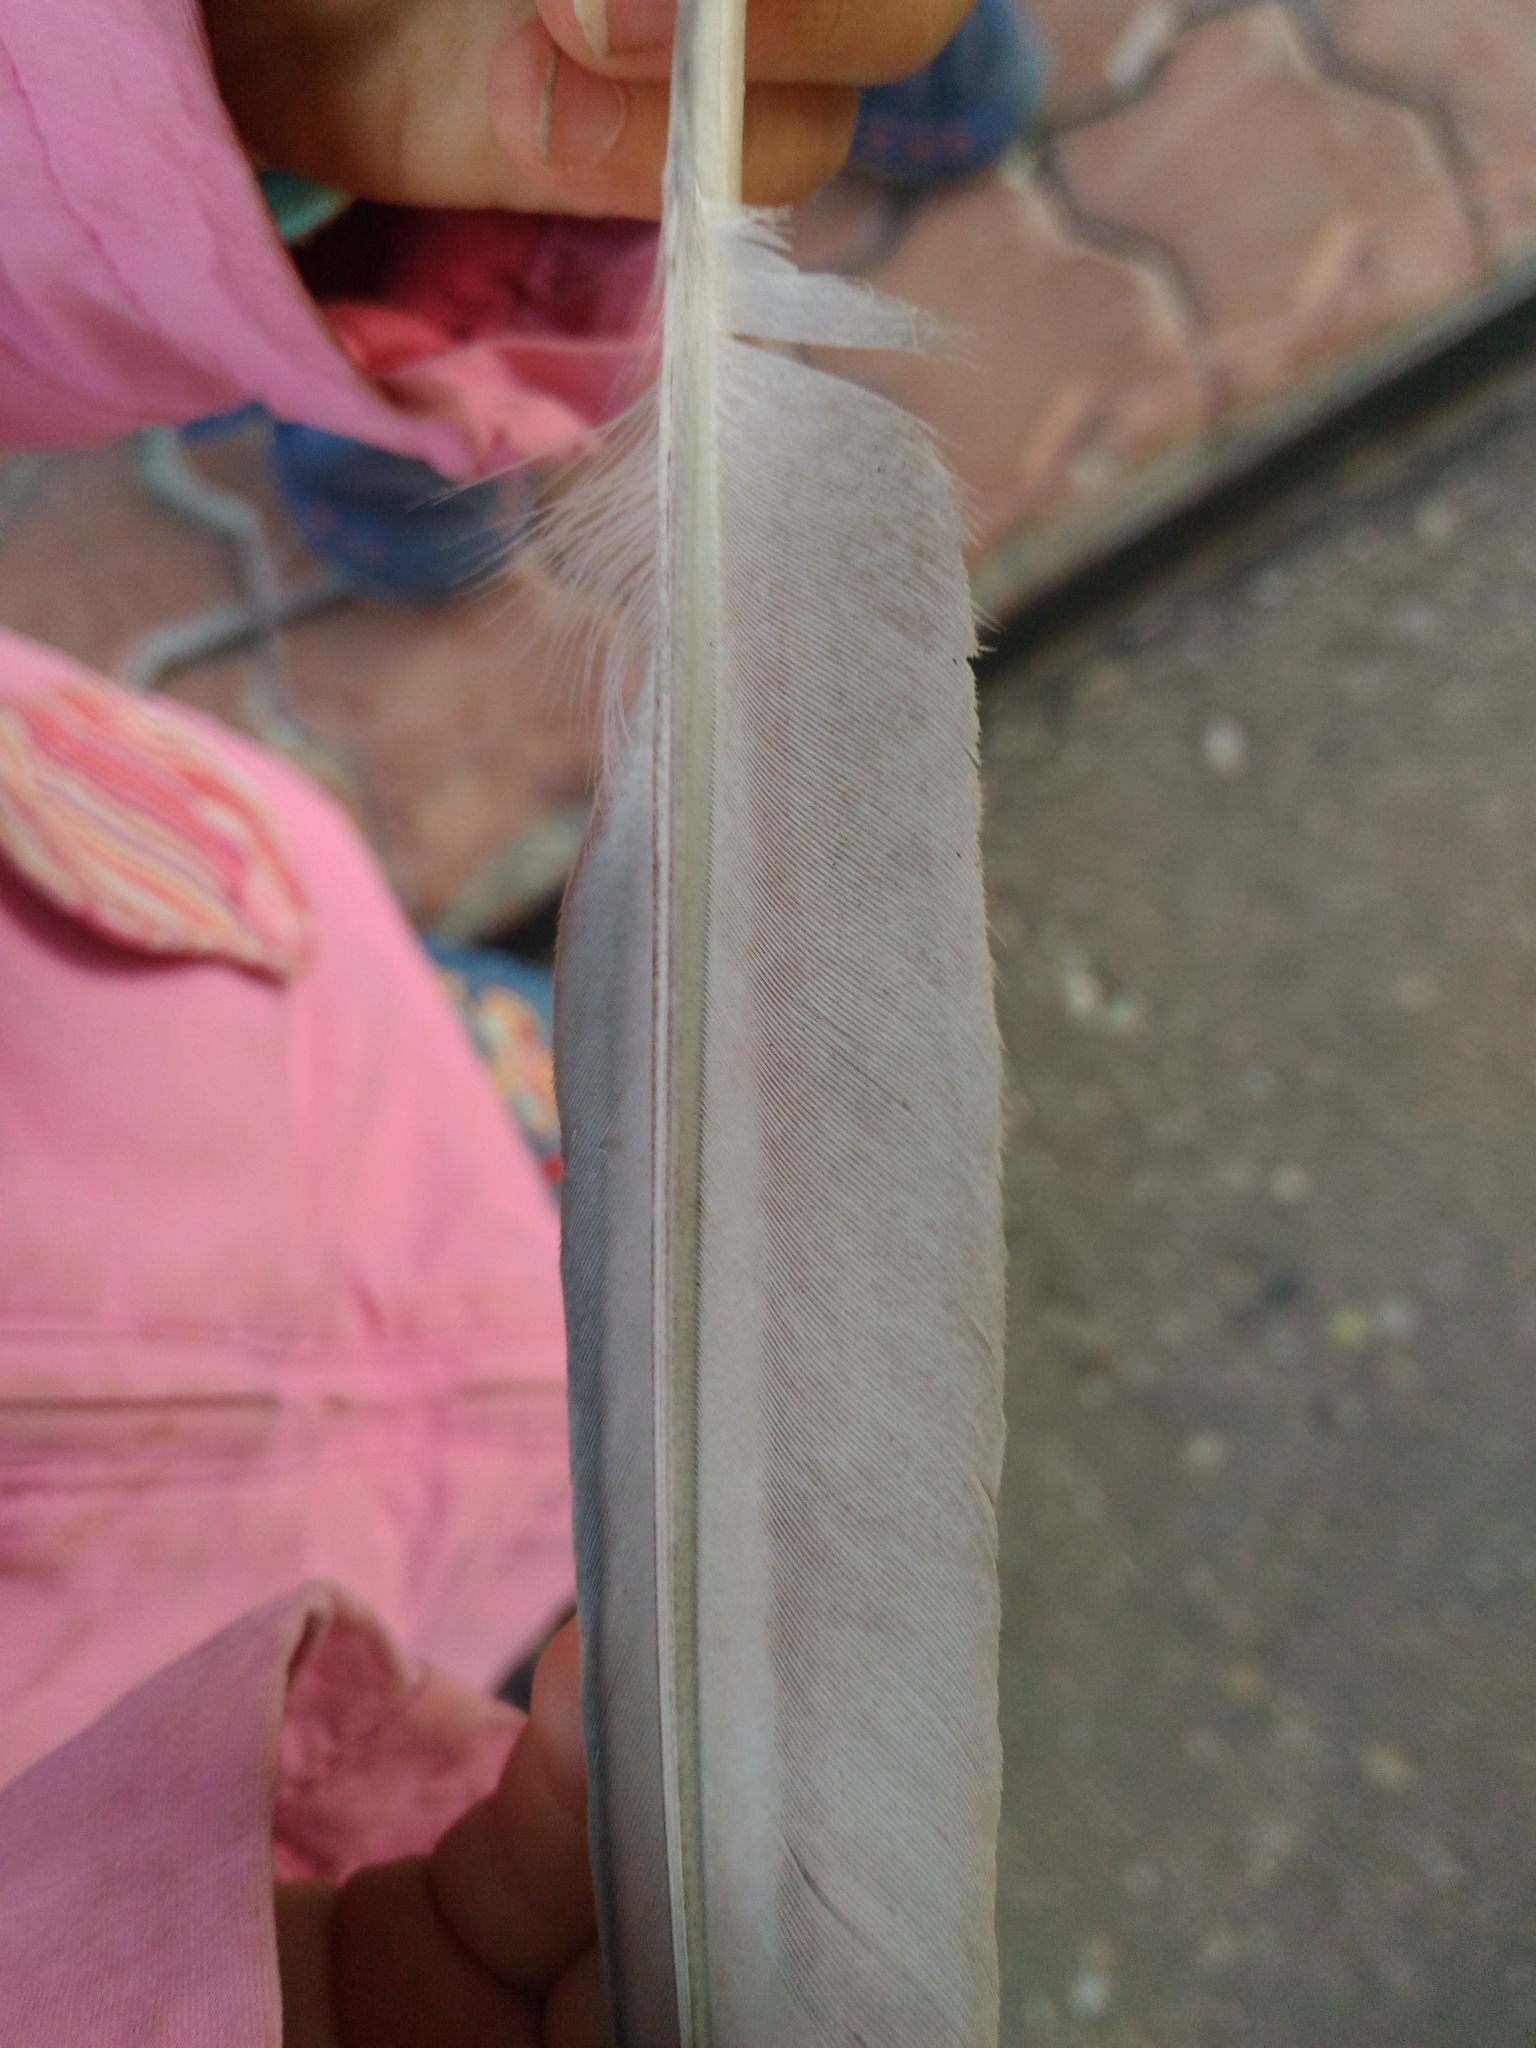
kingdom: Animalia
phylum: Chordata
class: Aves
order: Columbiformes
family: Columbidae
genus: Columba
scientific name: Columba livia
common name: Rock pigeon
